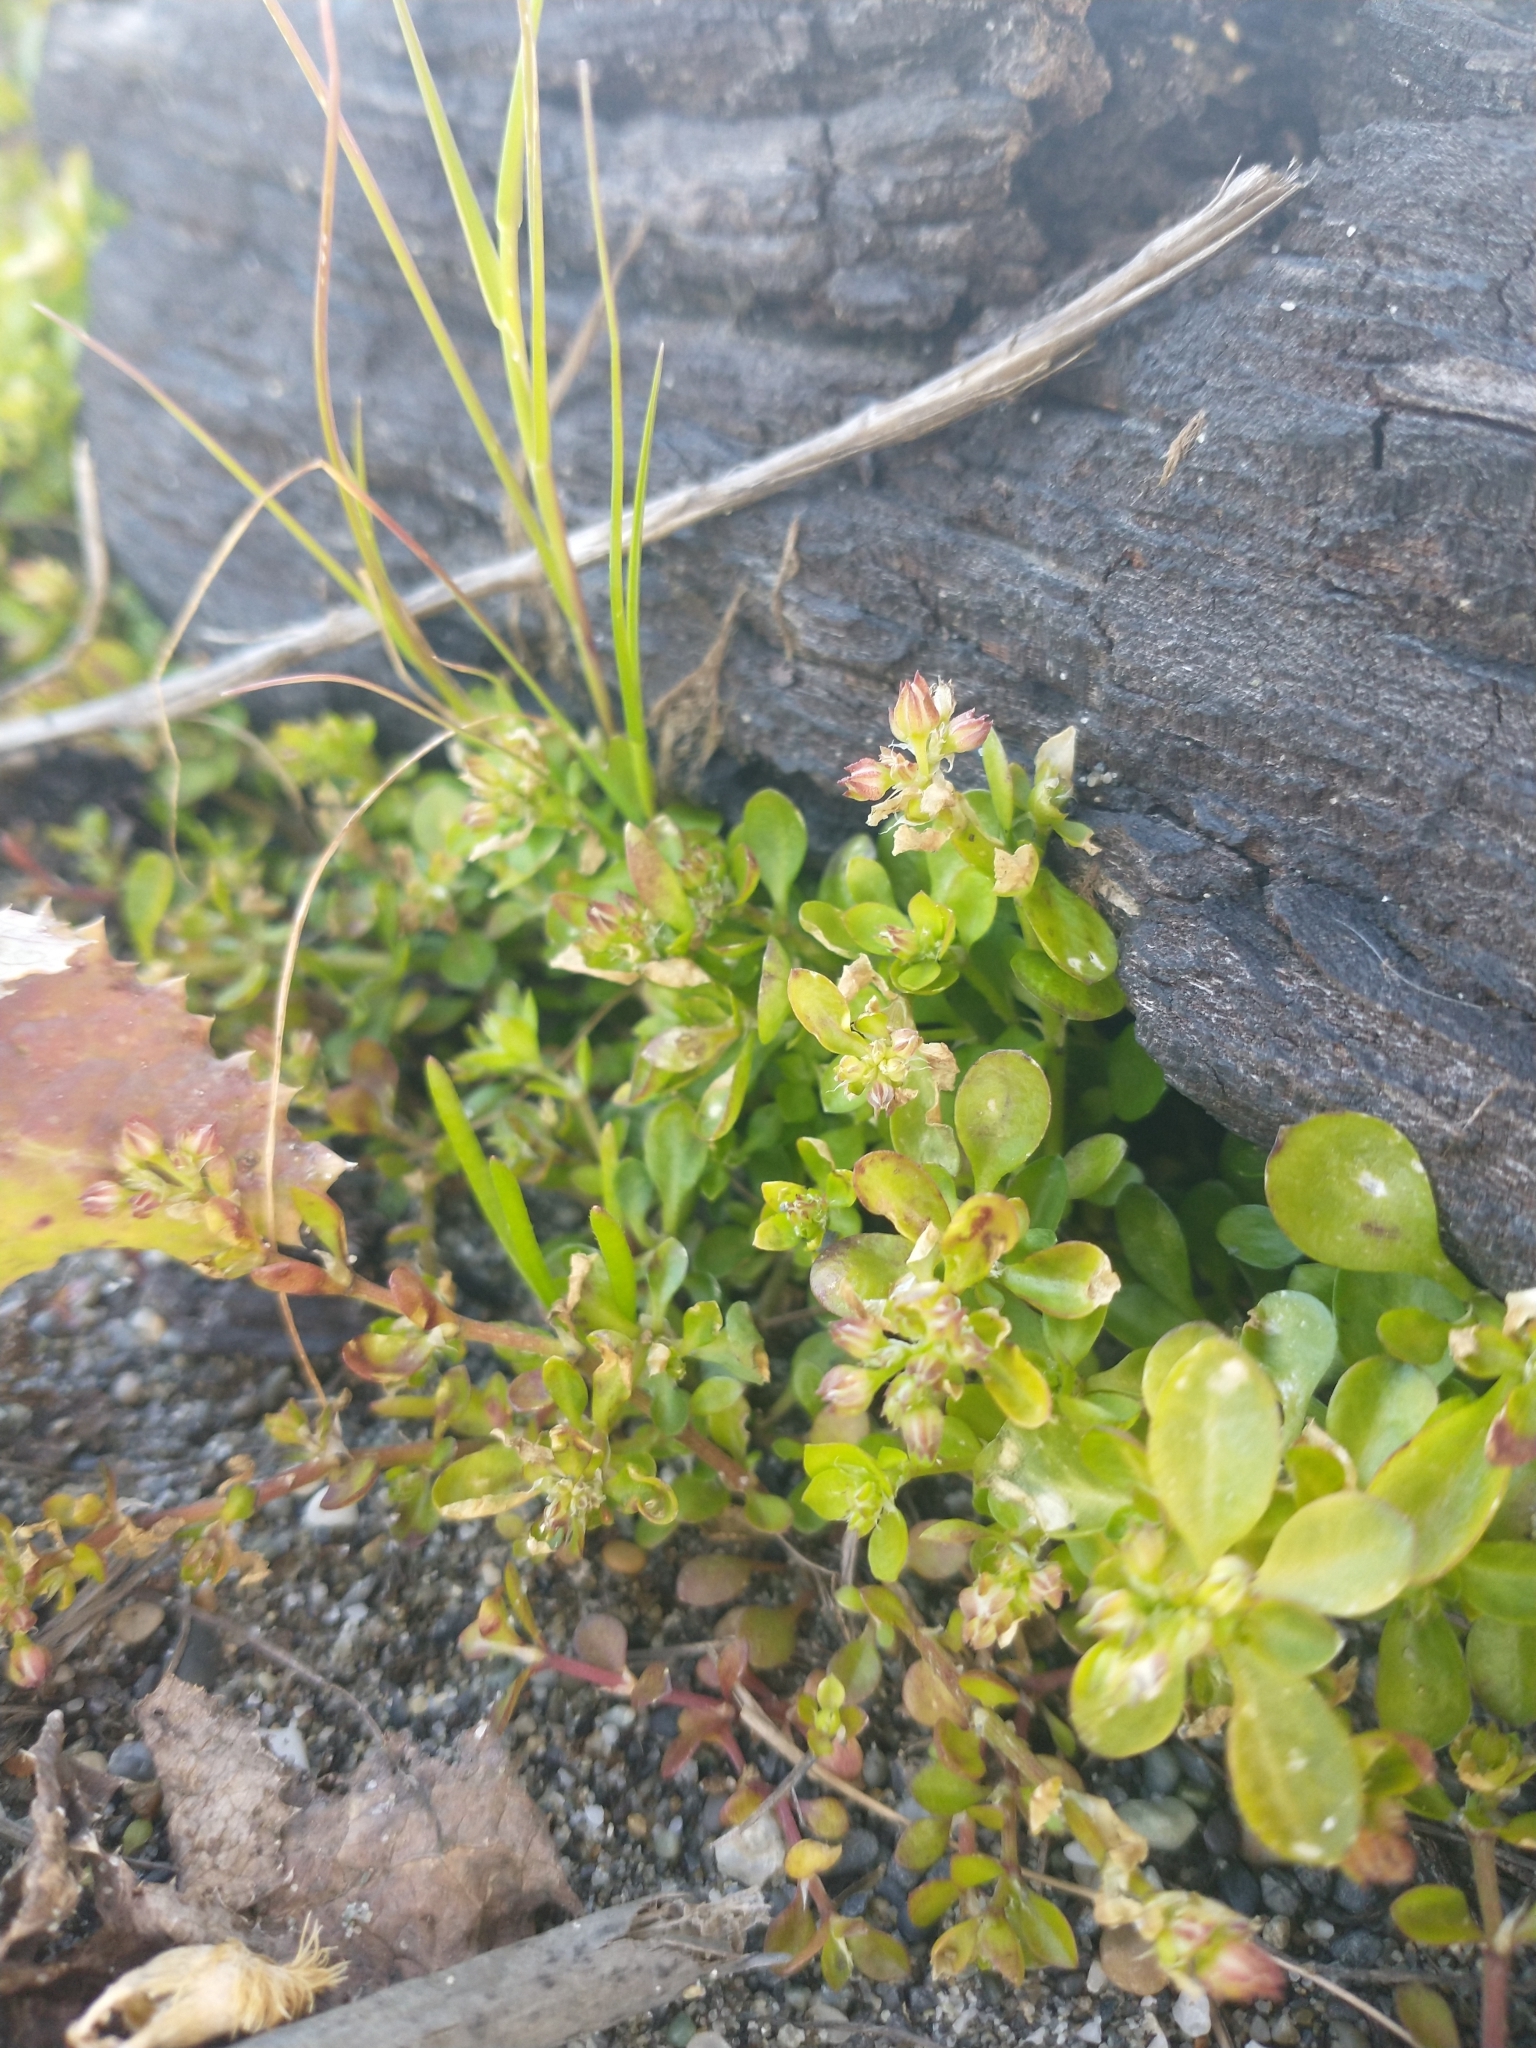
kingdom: Plantae
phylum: Tracheophyta
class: Magnoliopsida
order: Caryophyllales
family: Caryophyllaceae
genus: Polycarpon
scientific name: Polycarpon tetraphyllum
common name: Four-leaved all-seed
